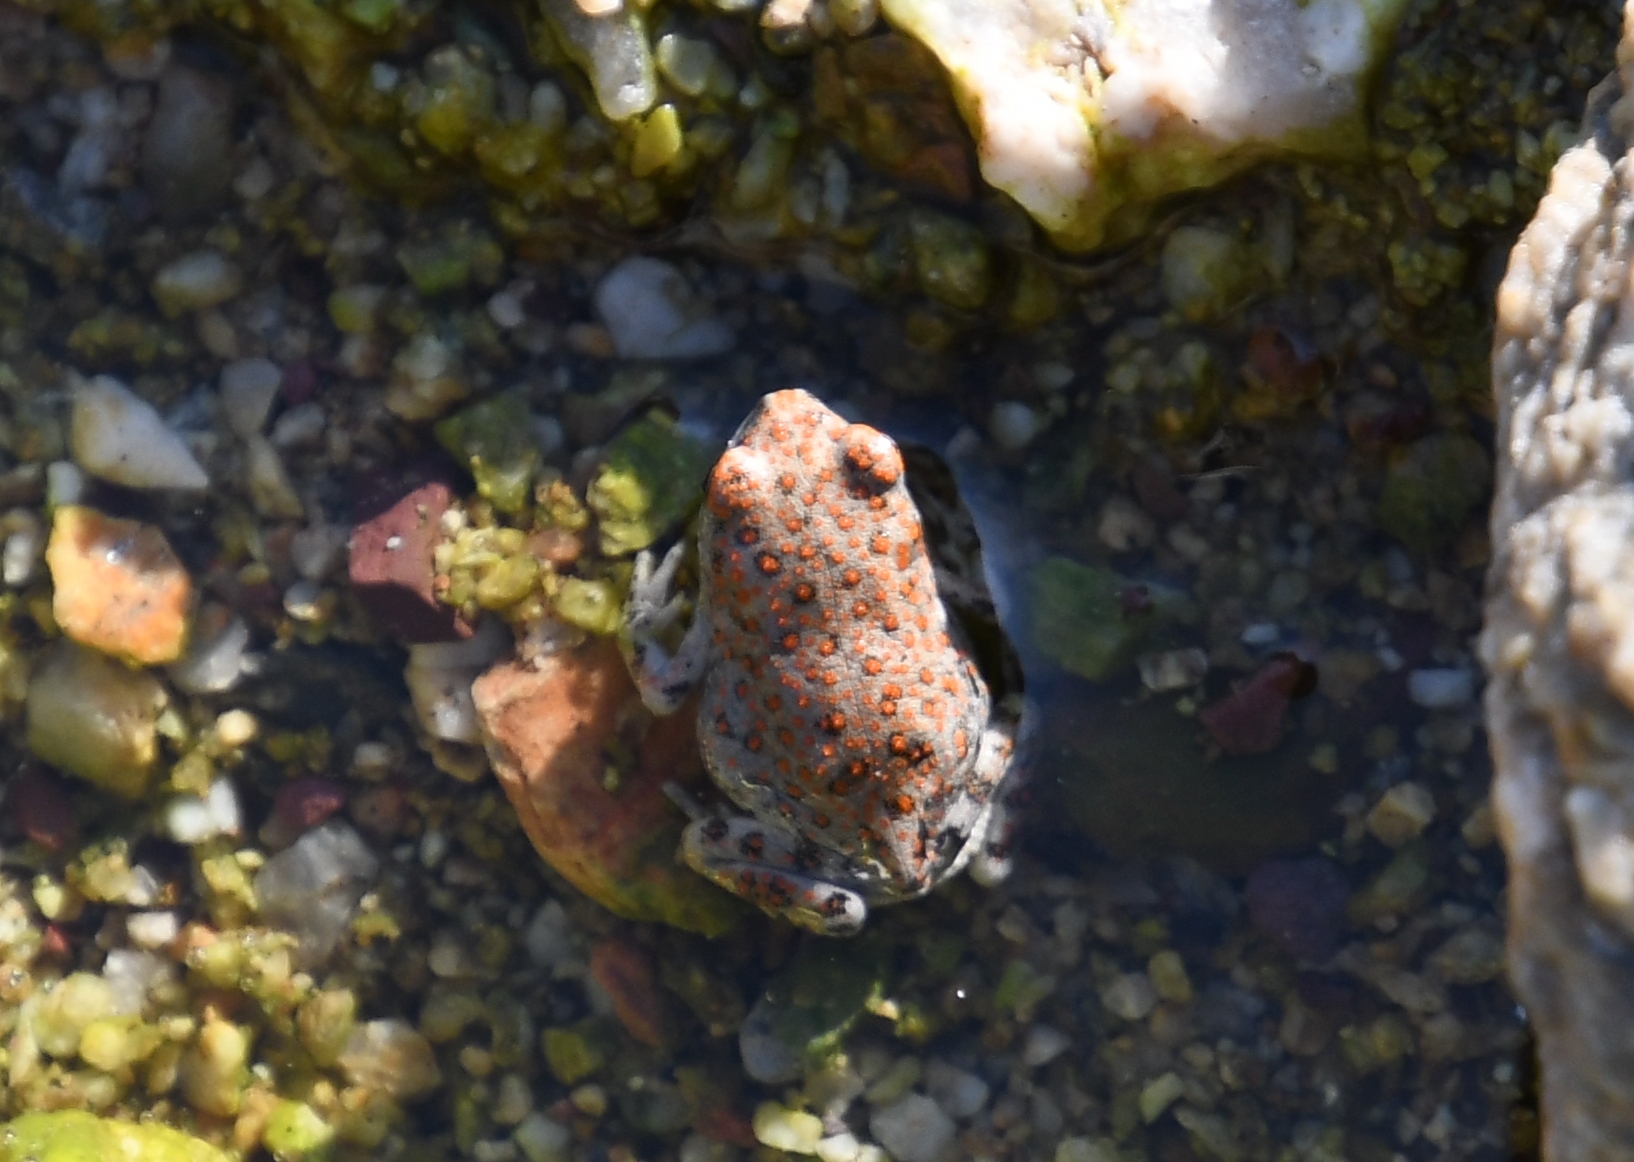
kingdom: Animalia
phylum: Chordata
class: Amphibia
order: Anura
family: Bufonidae
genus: Anaxyrus
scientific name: Anaxyrus punctatus
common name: Red-spotted toad
